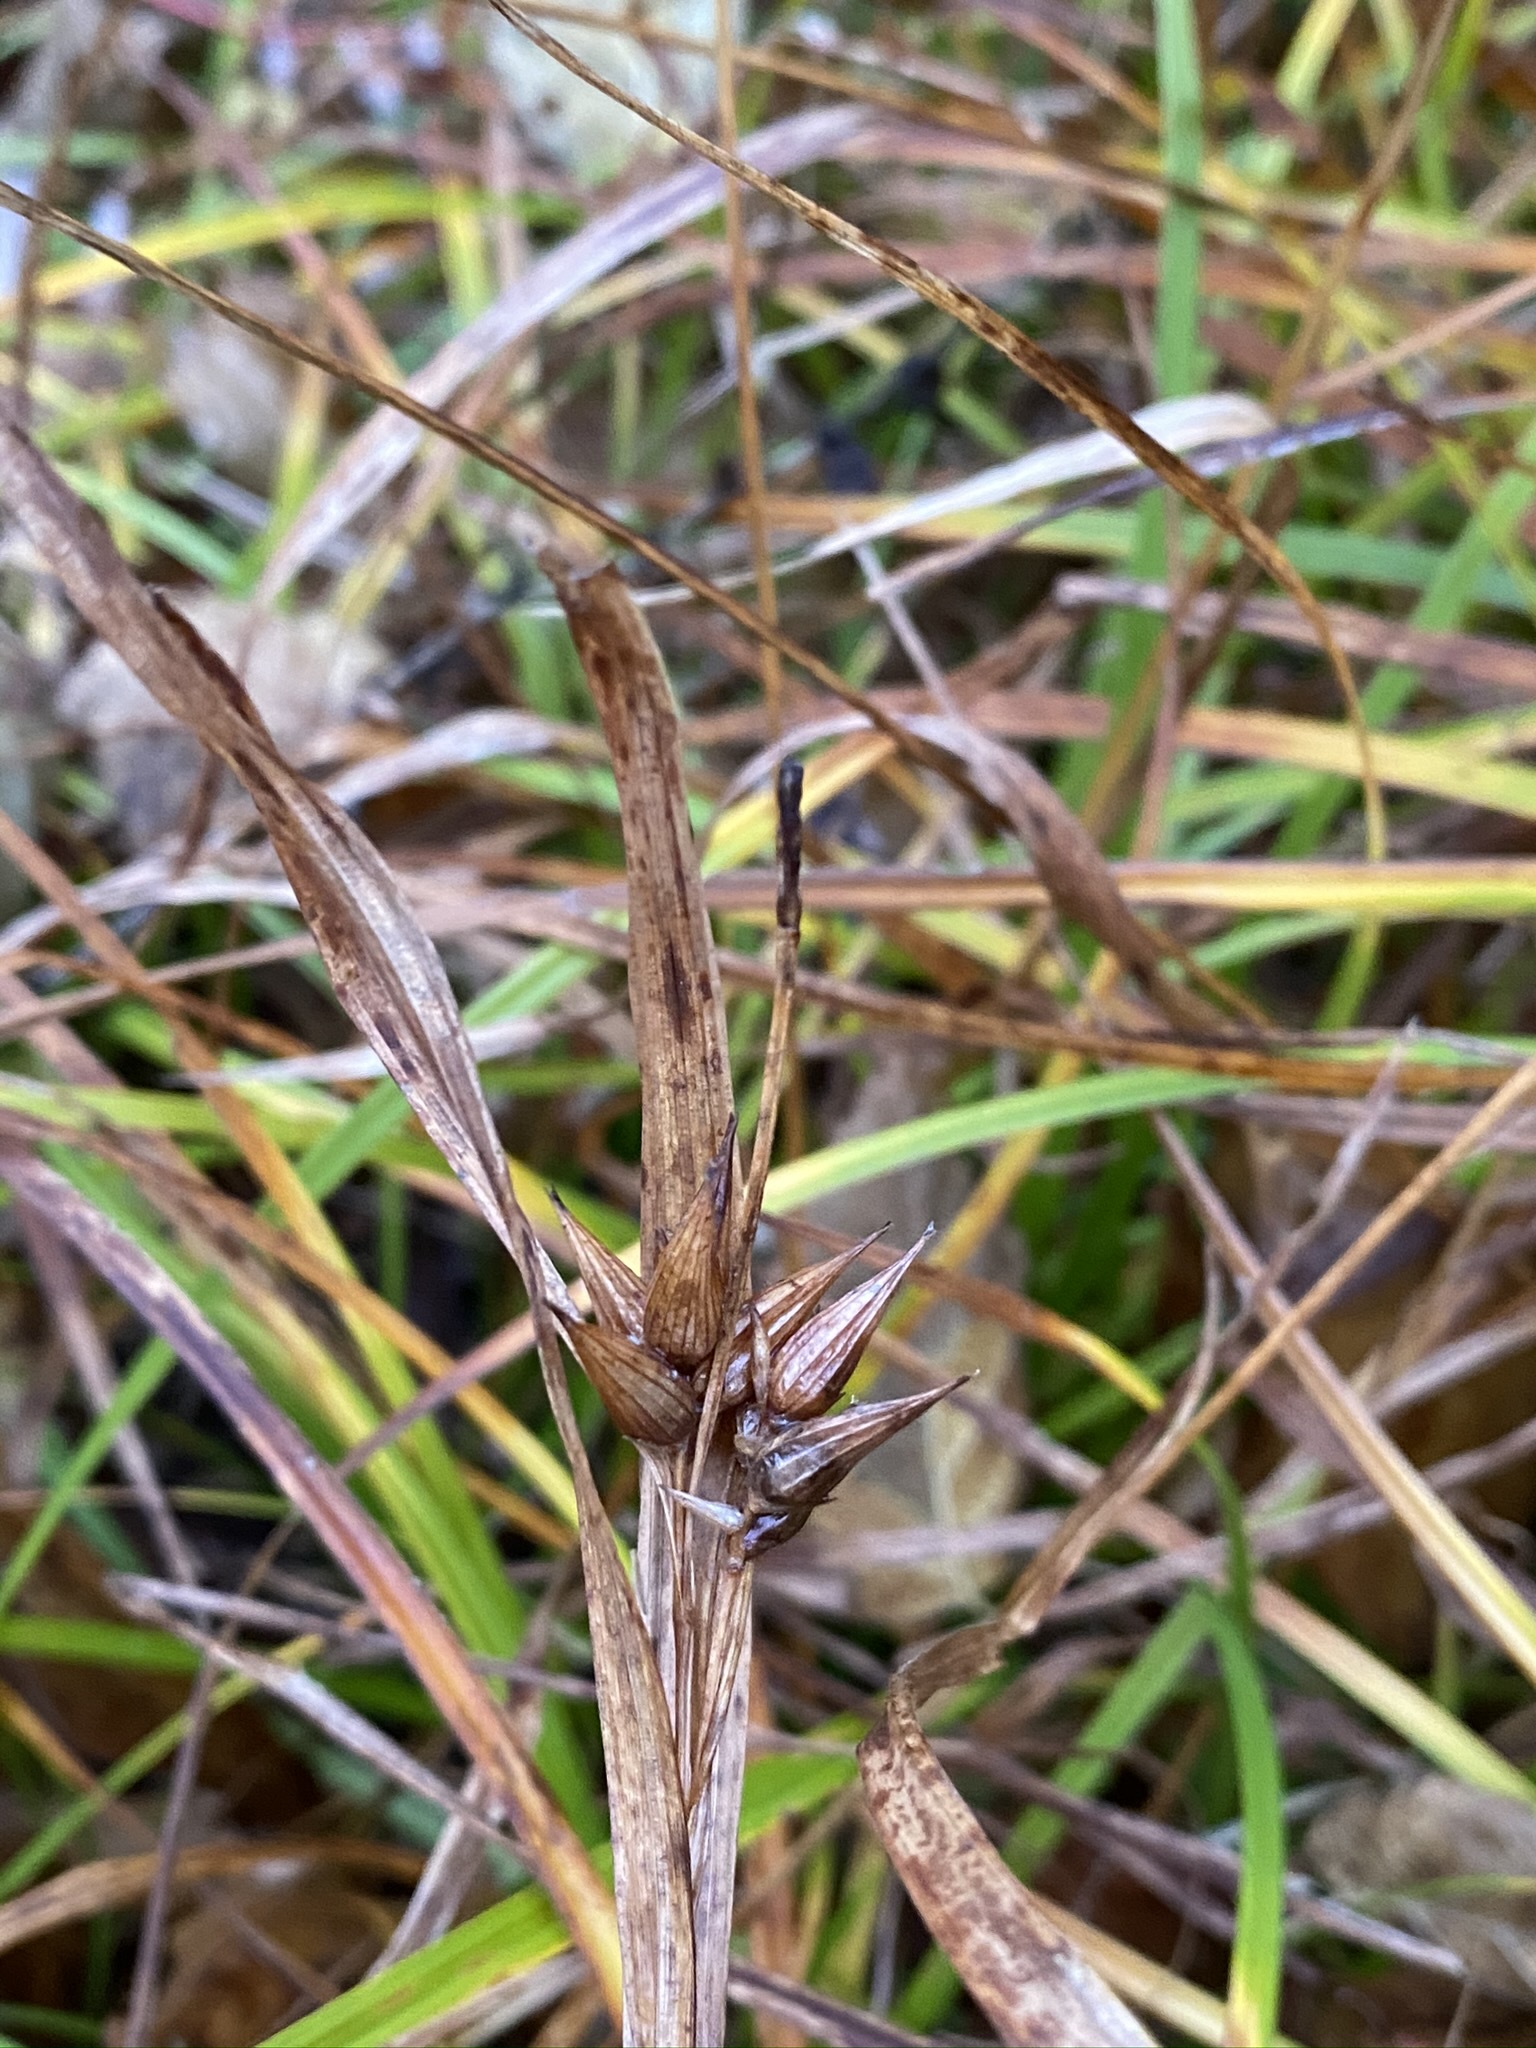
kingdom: Plantae
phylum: Tracheophyta
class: Liliopsida
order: Poales
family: Cyperaceae
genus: Carex
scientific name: Carex intumescens
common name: Greater bladder sedge
